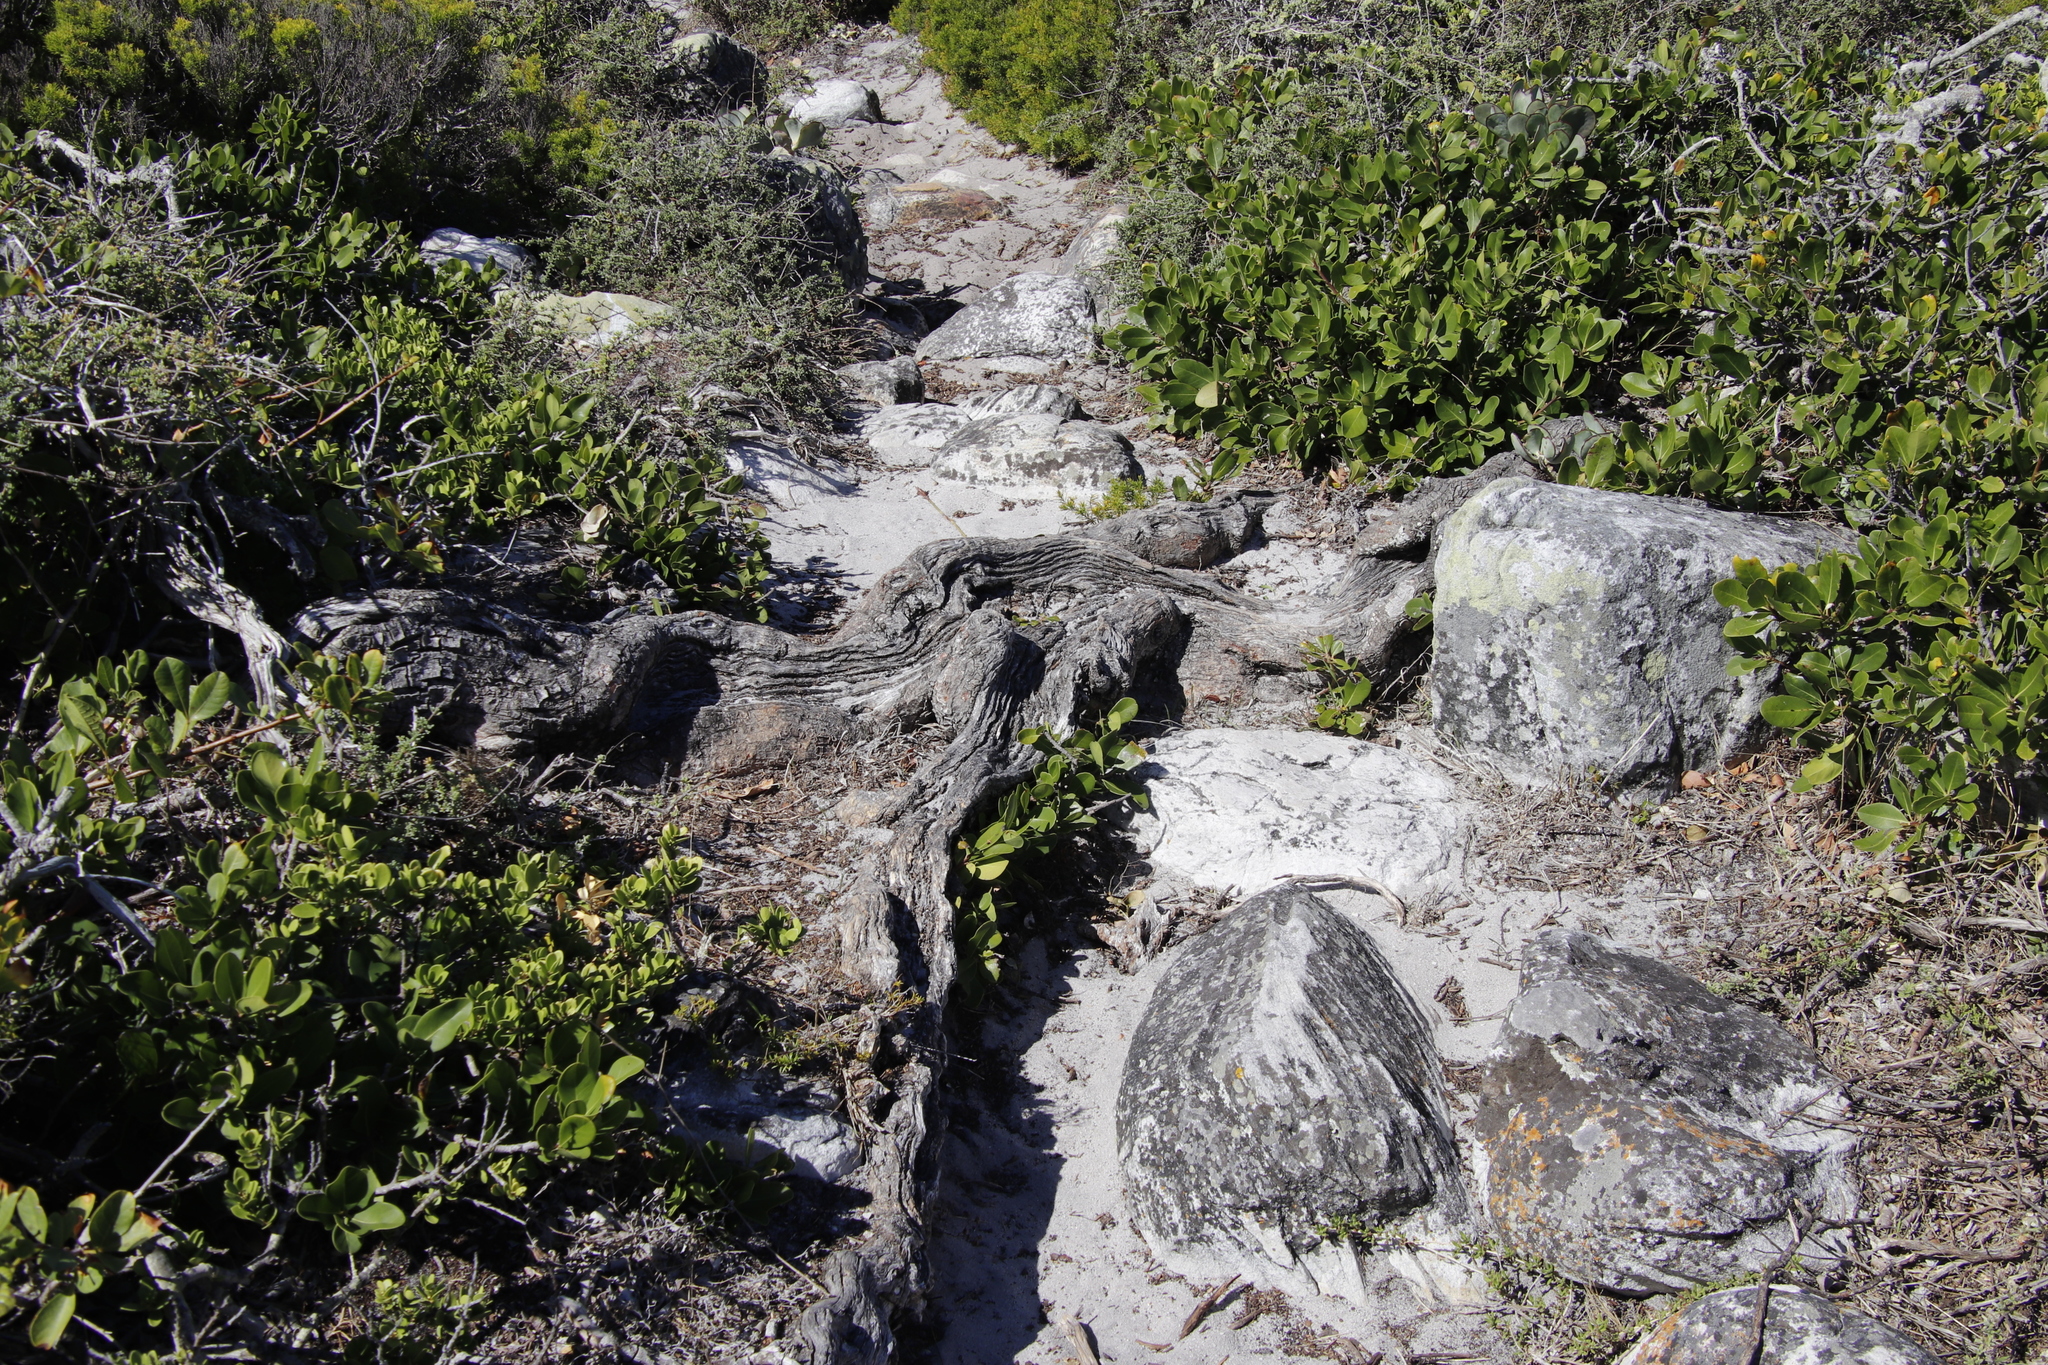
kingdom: Plantae
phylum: Tracheophyta
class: Magnoliopsida
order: Sapindales
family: Anacardiaceae
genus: Searsia
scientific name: Searsia laevigata
